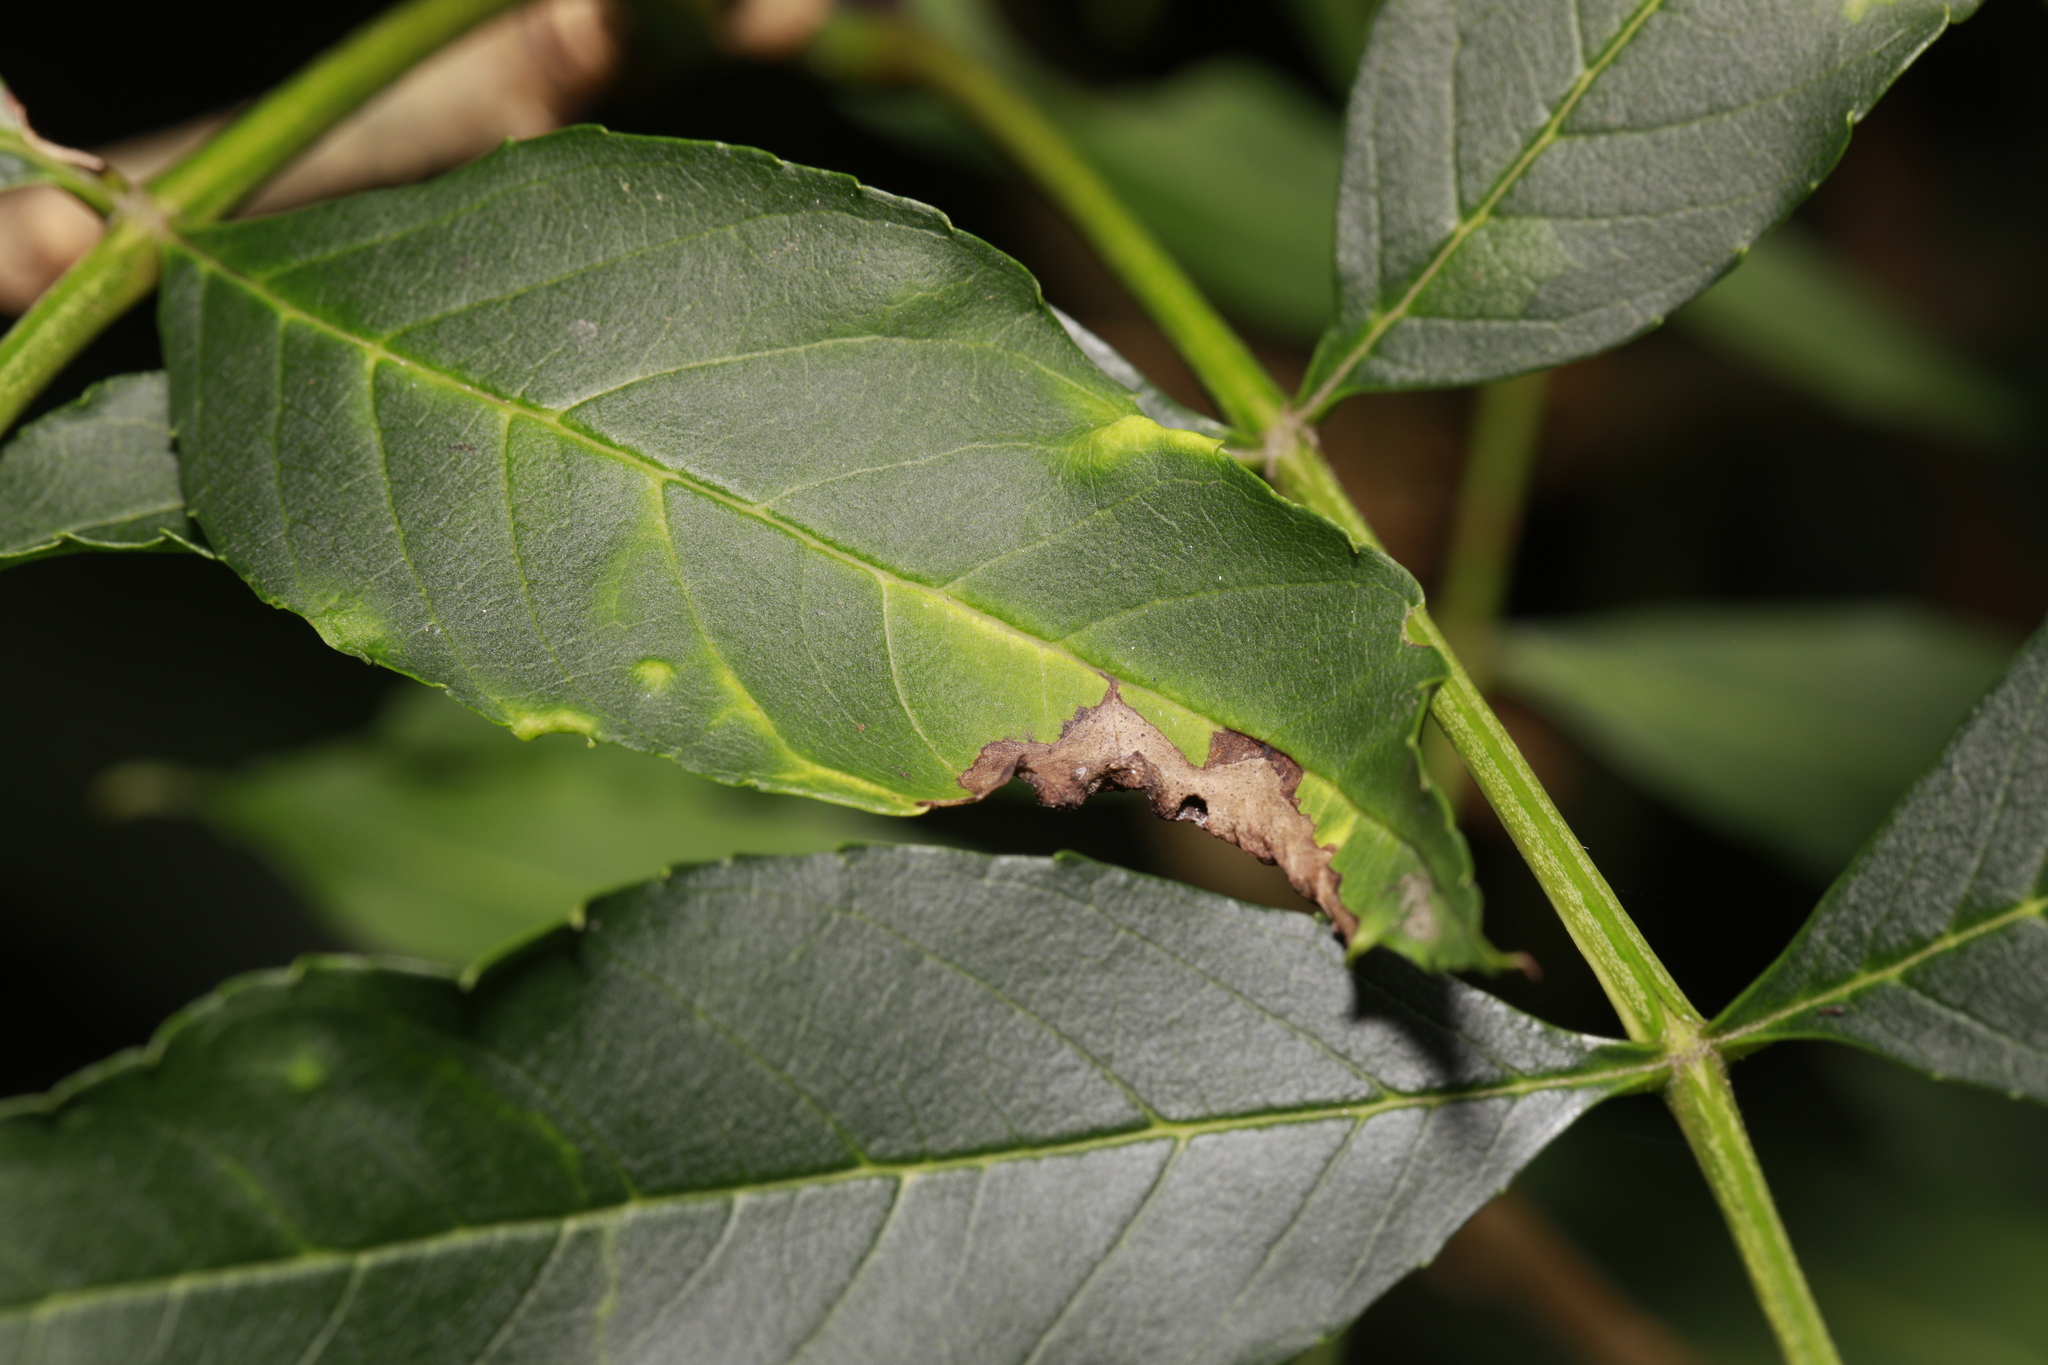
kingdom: Animalia
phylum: Arthropoda
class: Insecta
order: Hemiptera
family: Liviidae
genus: Psyllopsis
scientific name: Psyllopsis fraxini
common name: Jumping plant louse
